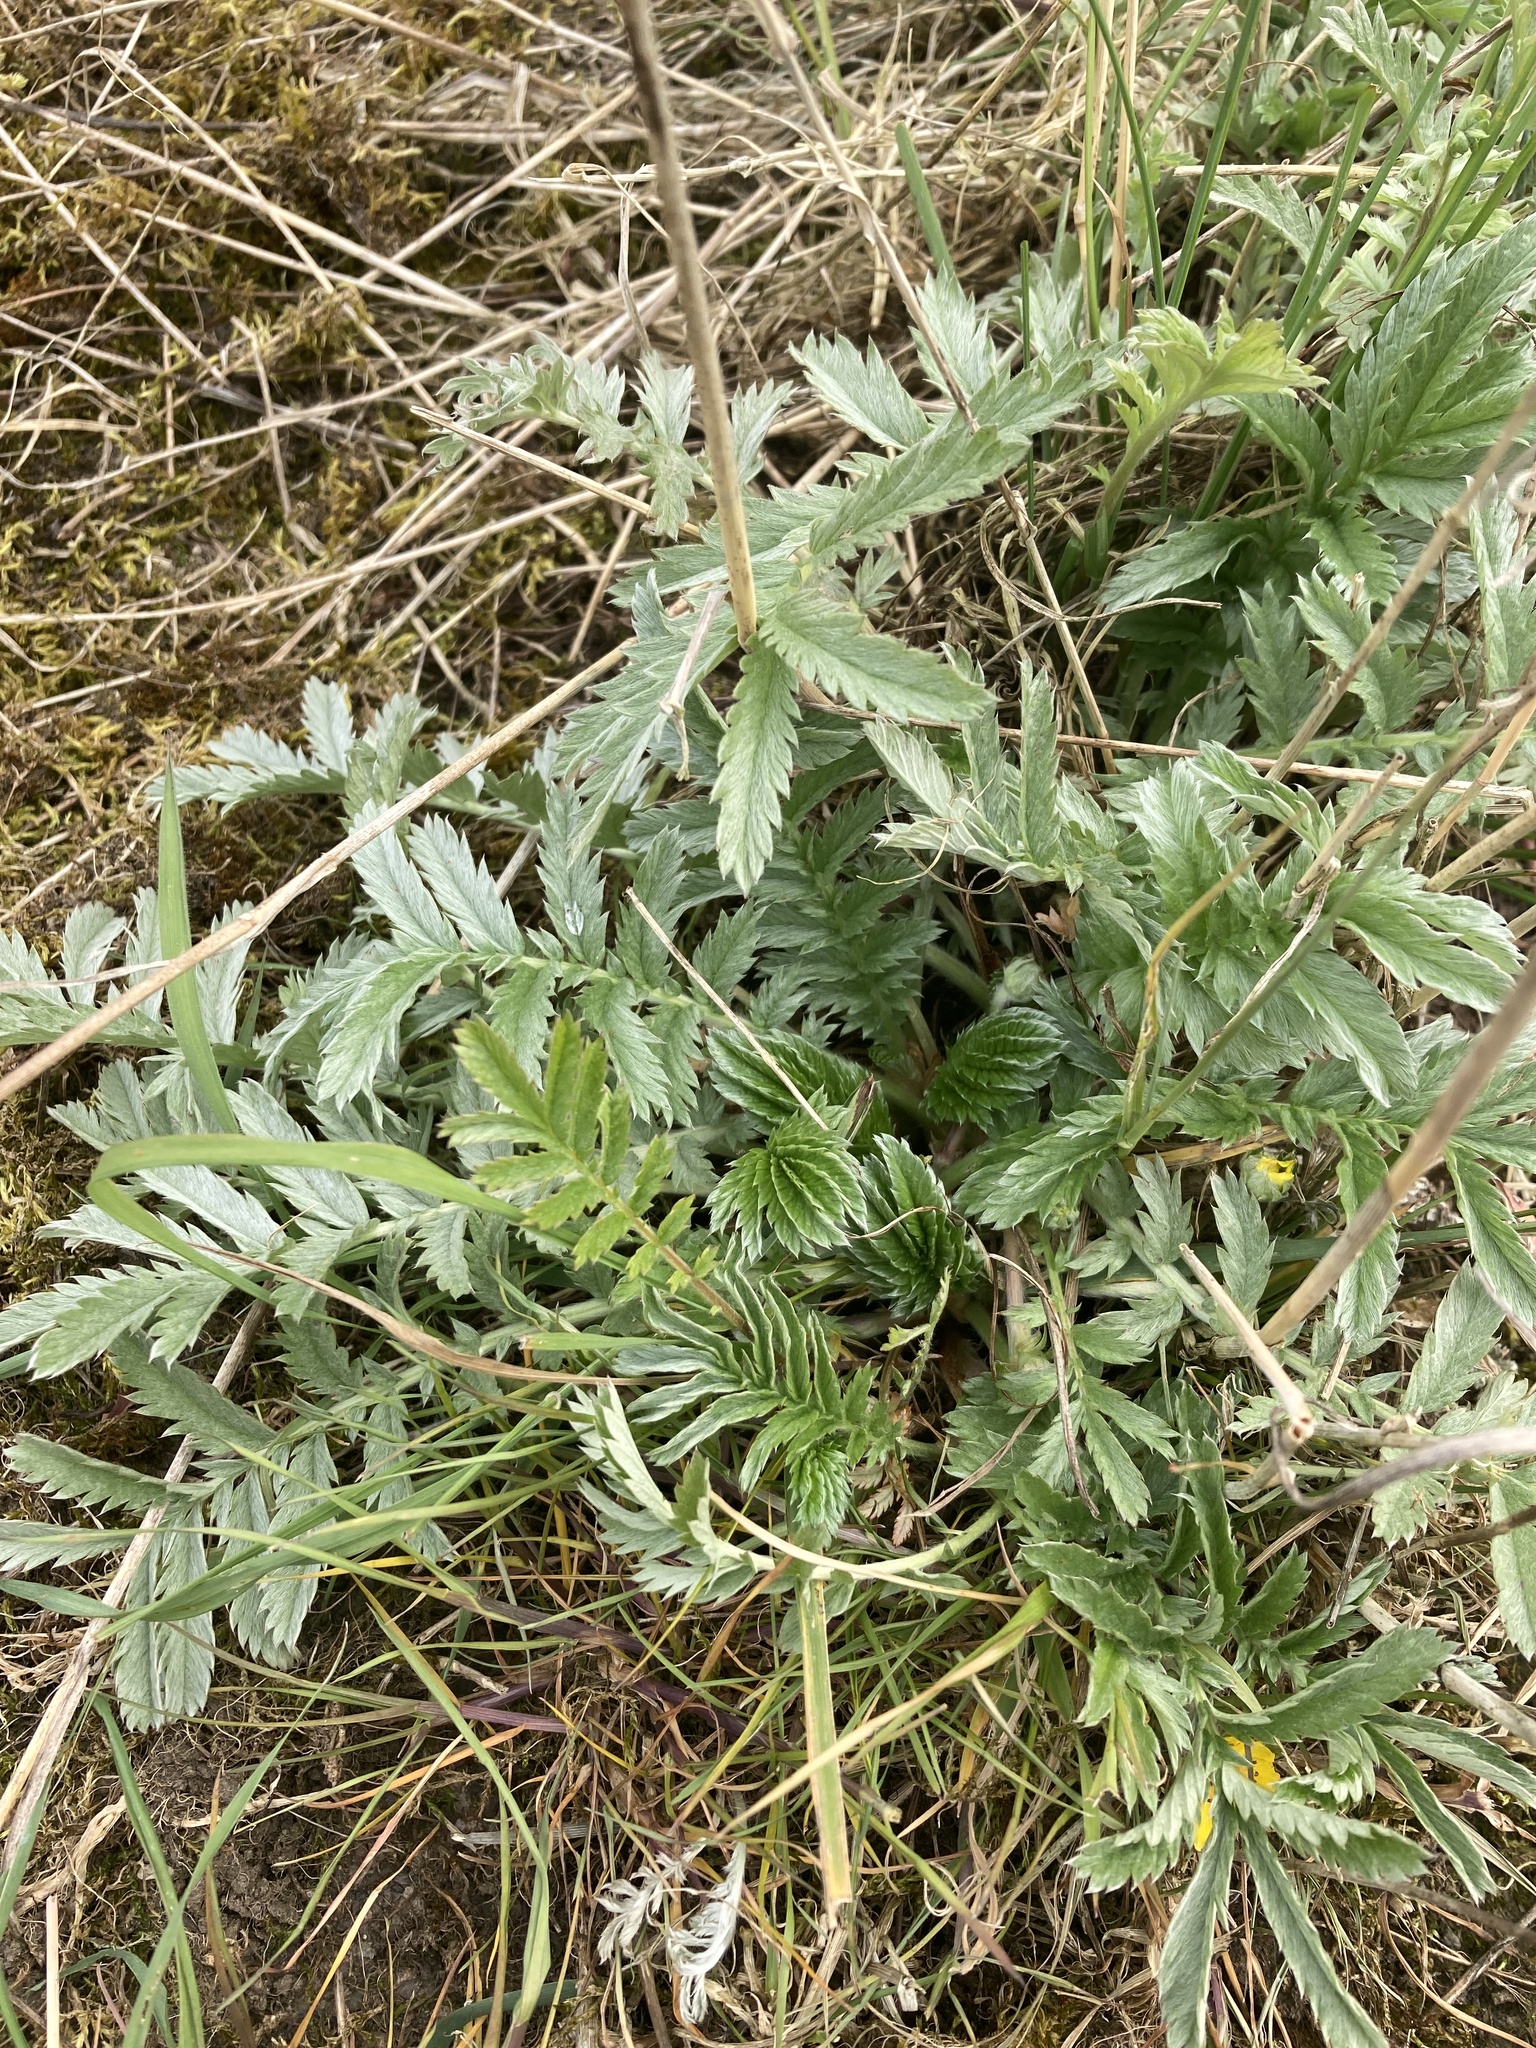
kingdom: Plantae
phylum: Tracheophyta
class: Magnoliopsida
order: Rosales
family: Rosaceae
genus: Argentina
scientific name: Argentina anserina
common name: Common silverweed
